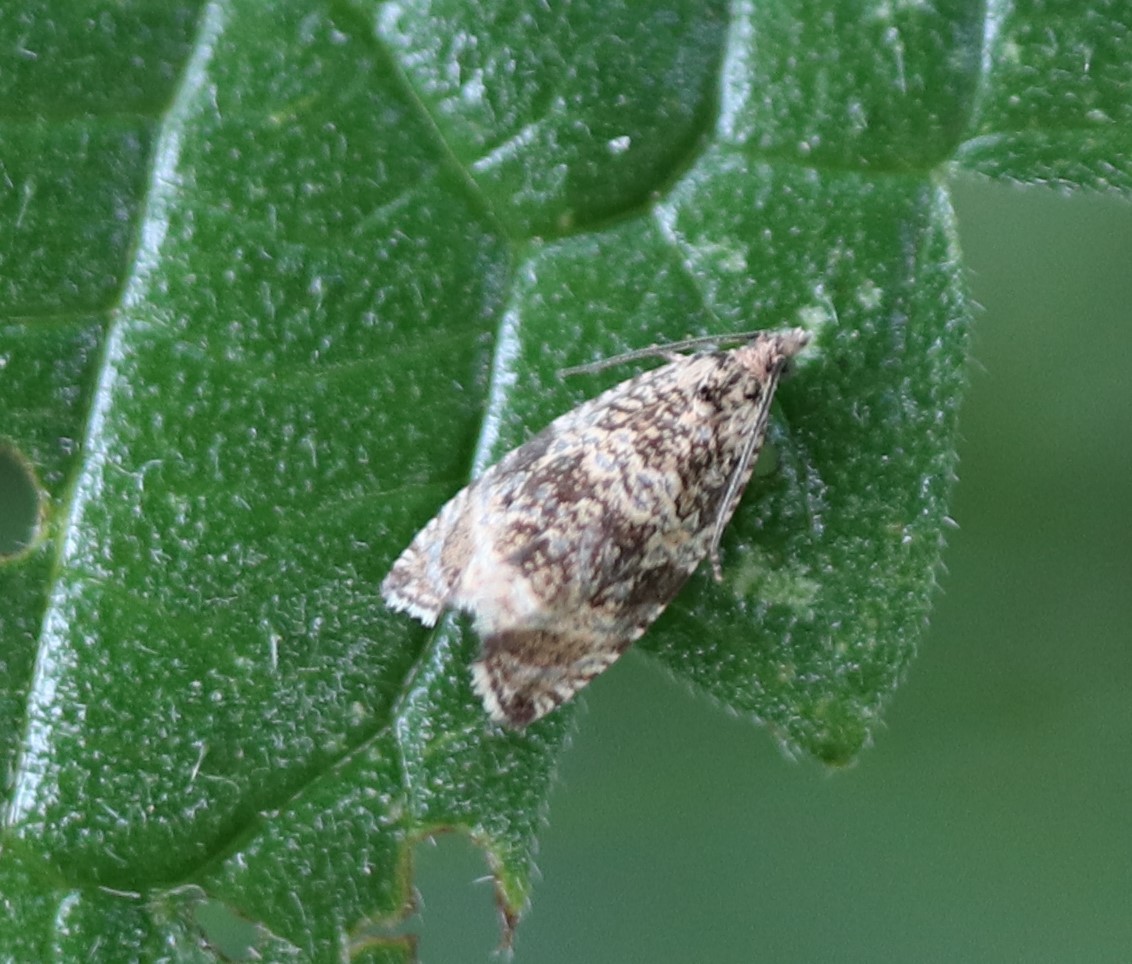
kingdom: Animalia
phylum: Arthropoda
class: Insecta
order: Lepidoptera
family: Tortricidae
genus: Syricoris
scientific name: Syricoris lacunana
